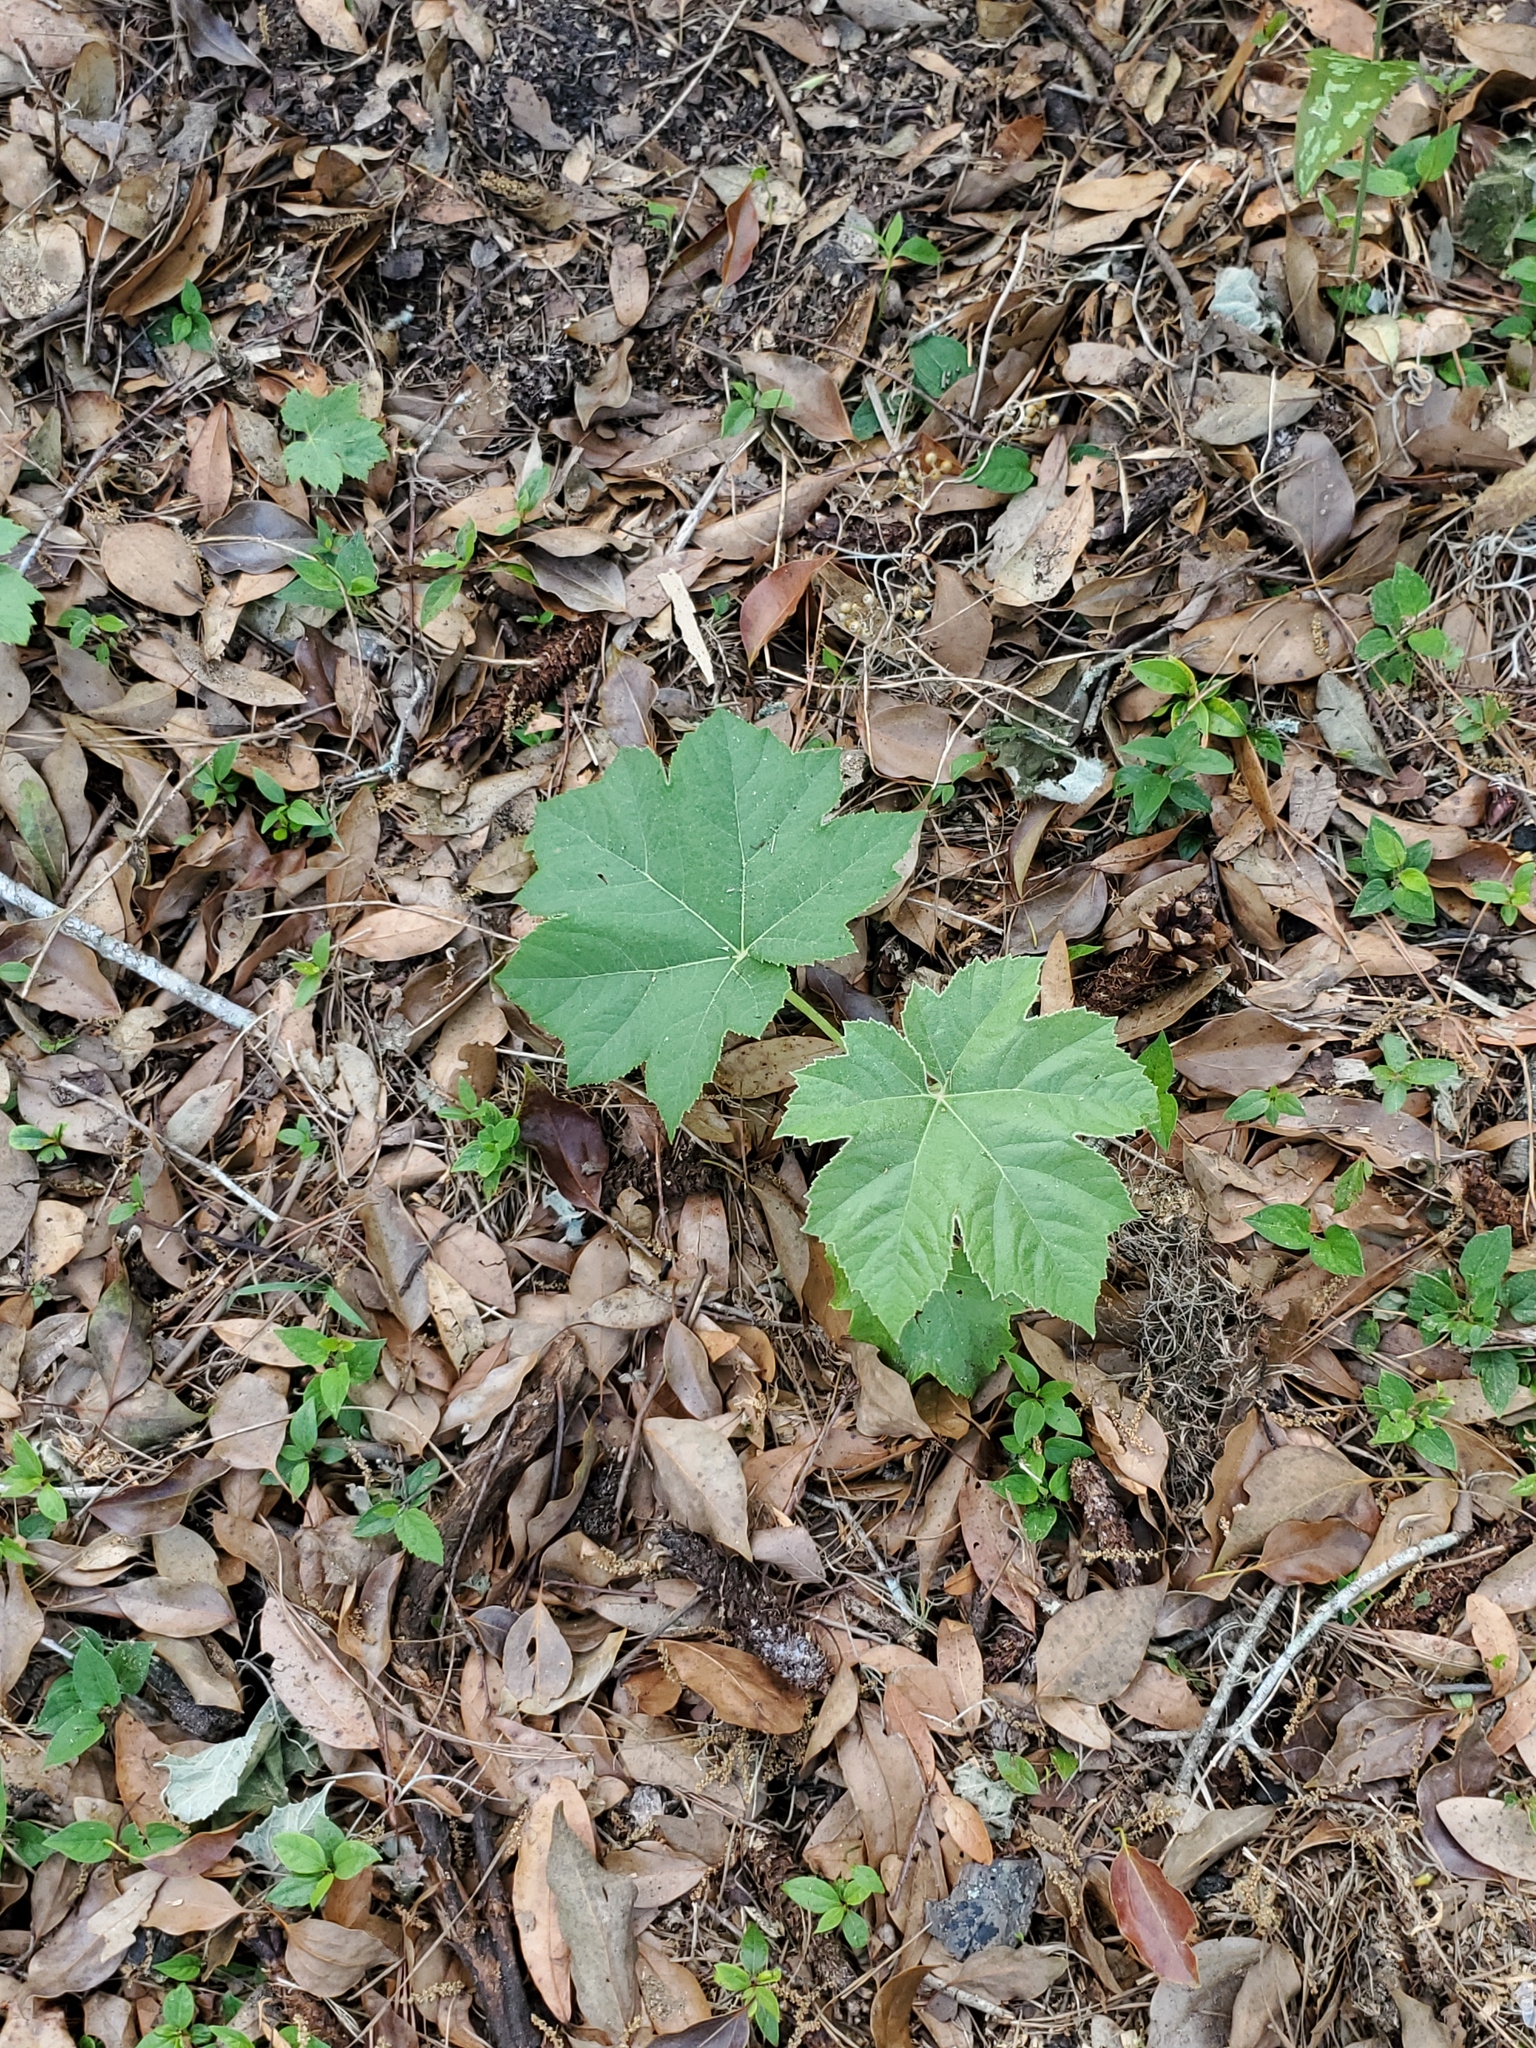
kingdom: Plantae
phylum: Tracheophyta
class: Magnoliopsida
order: Apiales
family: Araliaceae
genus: Tetrapanax
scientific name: Tetrapanax papyrifer
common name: Rice-paper plant
